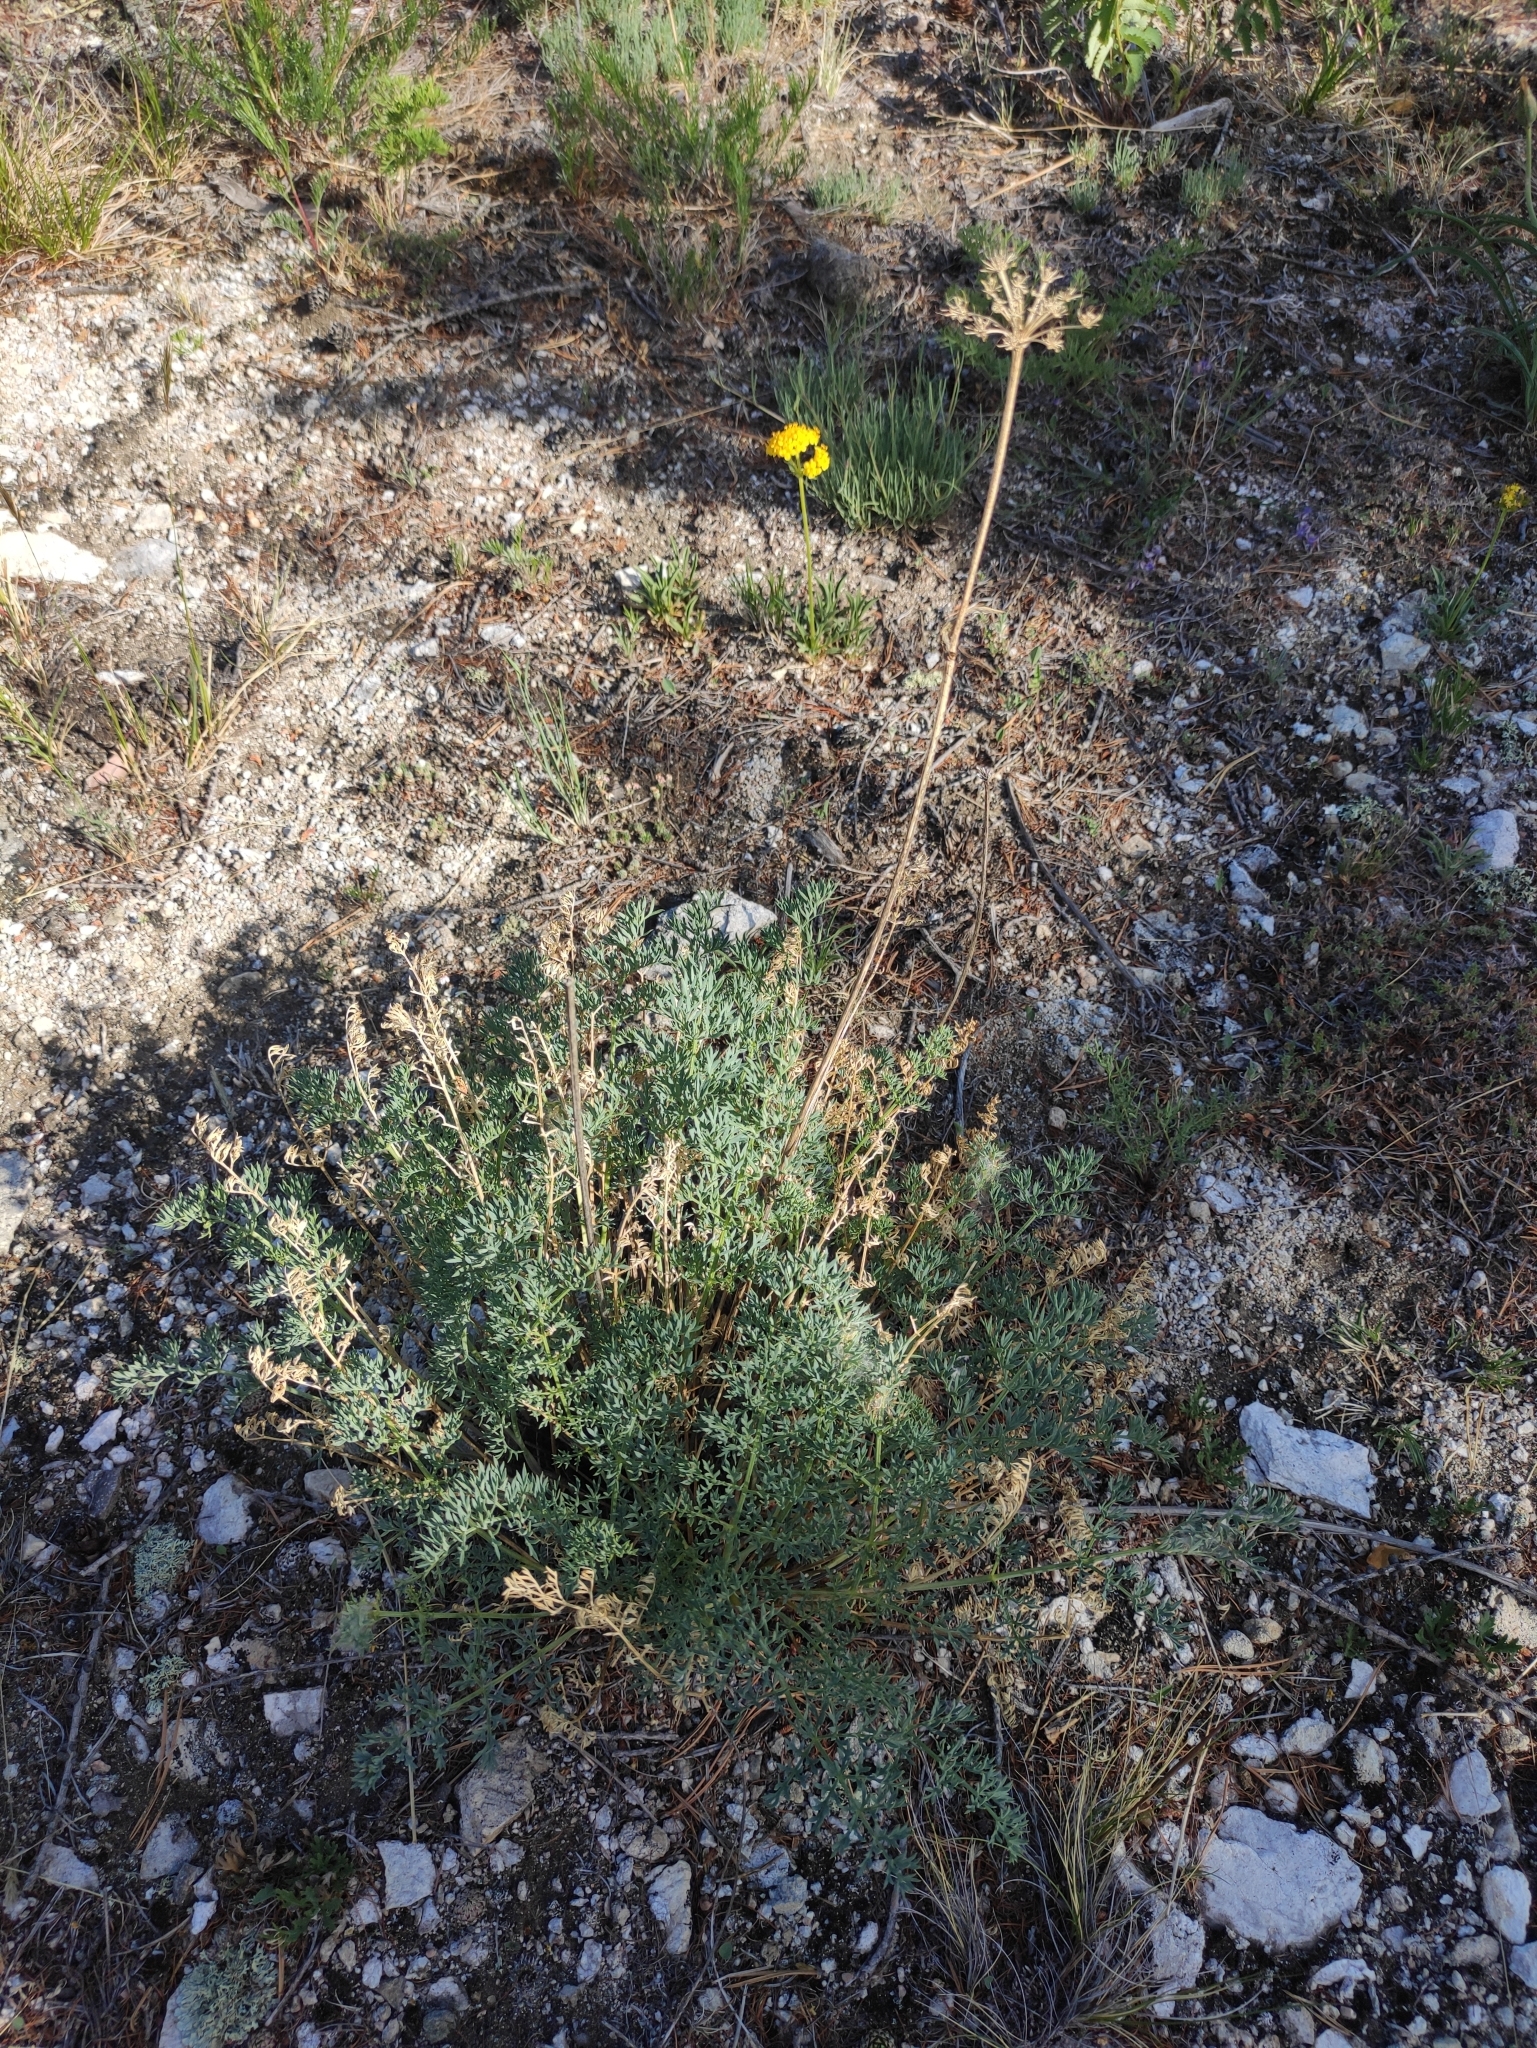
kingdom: Plantae
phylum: Tracheophyta
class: Magnoliopsida
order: Apiales
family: Apiaceae
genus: Phlojodicarpus
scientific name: Phlojodicarpus sibiricus
